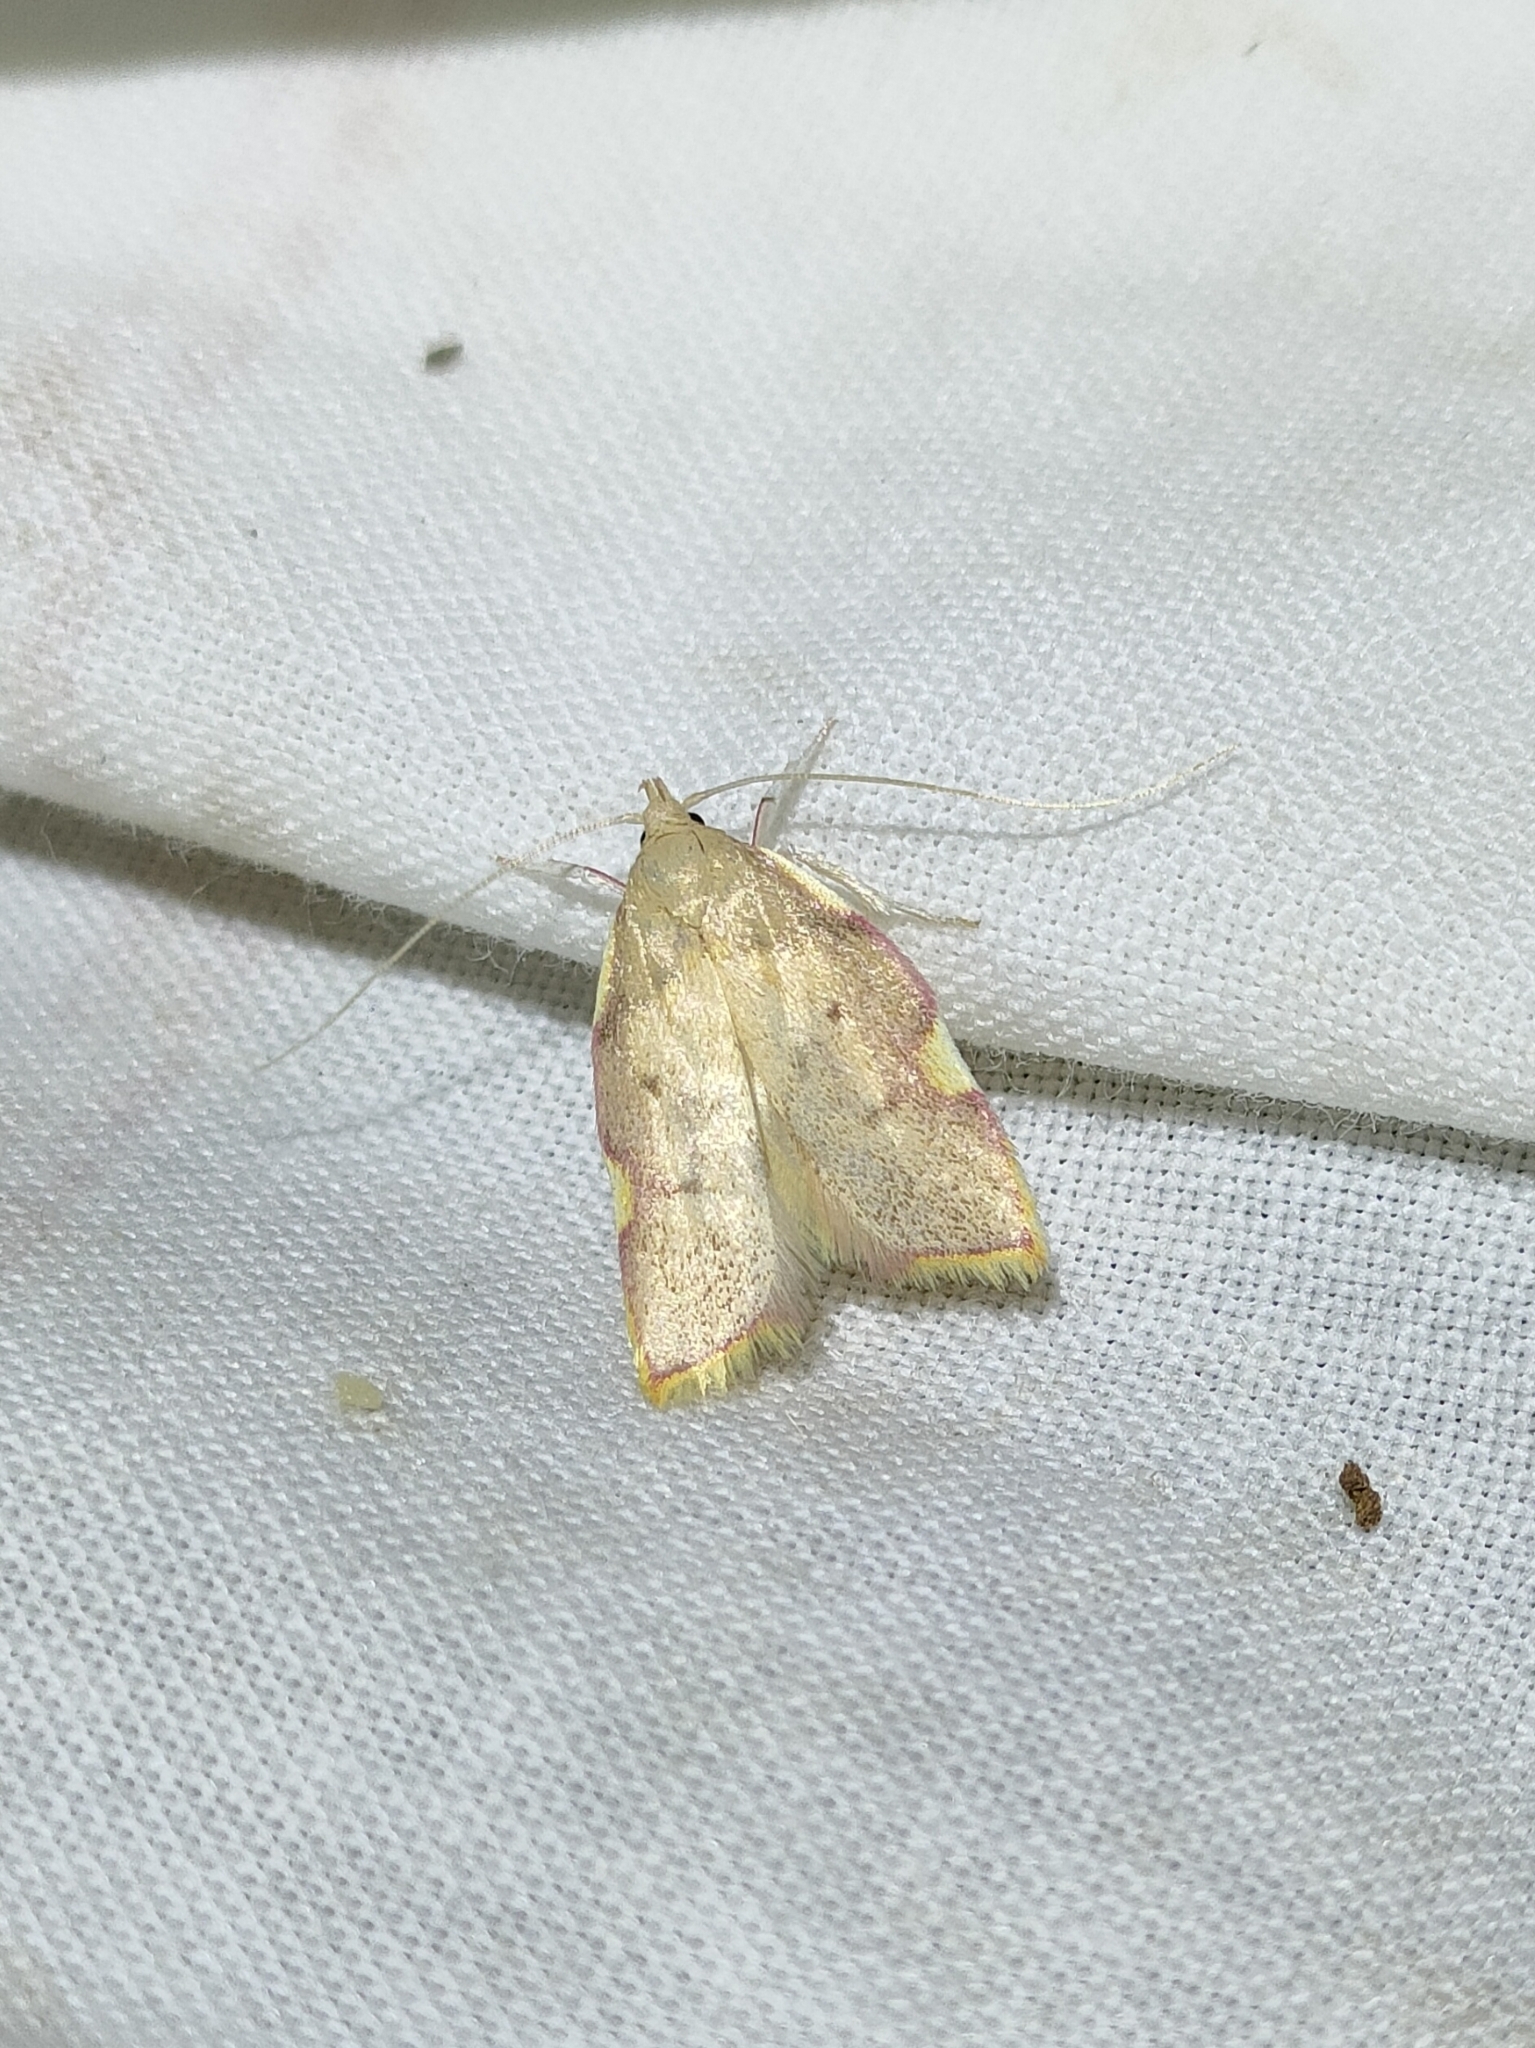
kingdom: Animalia
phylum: Arthropoda
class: Insecta
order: Lepidoptera
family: Peleopodidae
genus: Carcina
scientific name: Carcina quercana
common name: Moth
